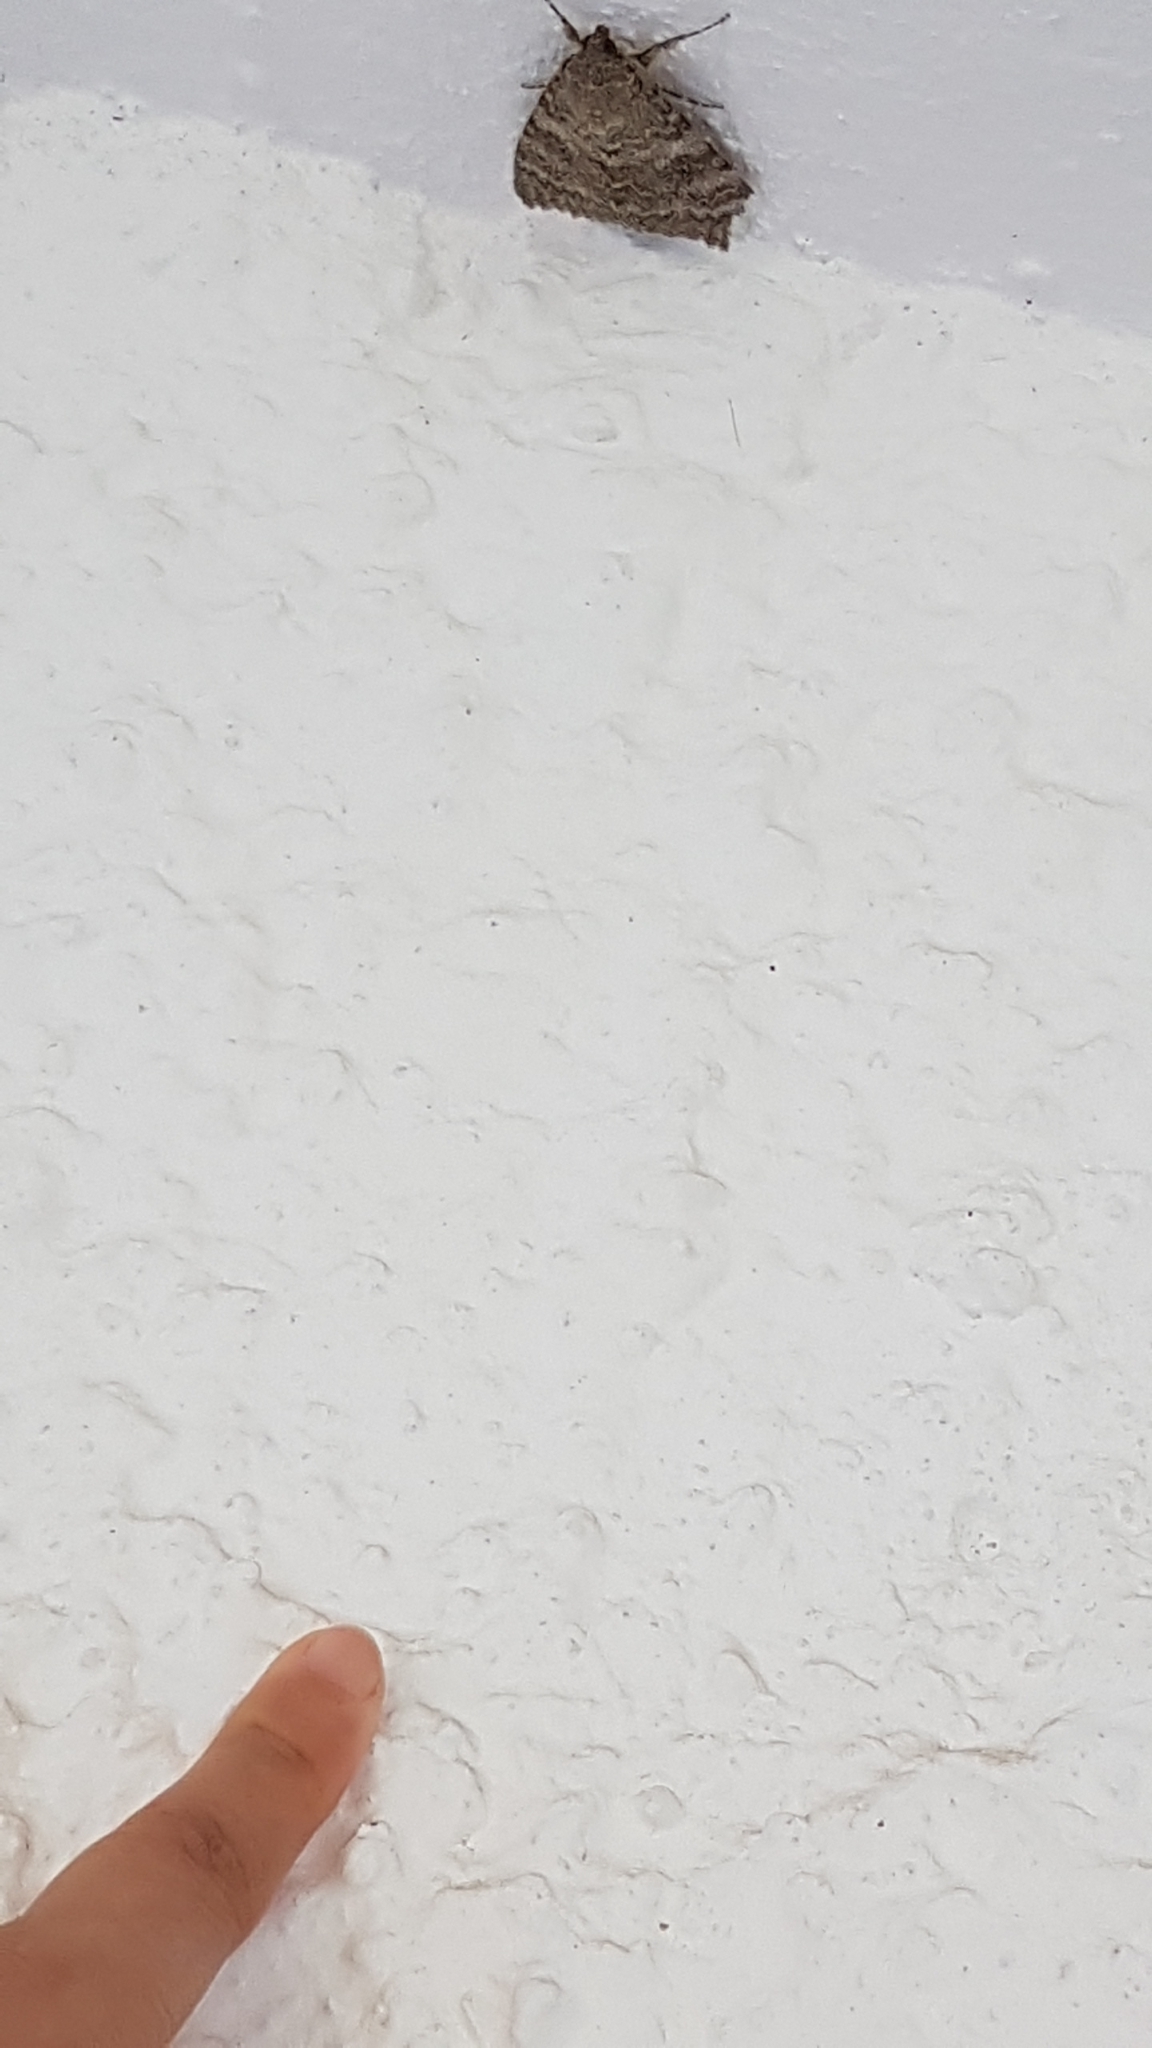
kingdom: Animalia
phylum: Arthropoda
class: Insecta
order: Lepidoptera
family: Erebidae
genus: Catocala
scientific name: Catocala elocata
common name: French red underwing
